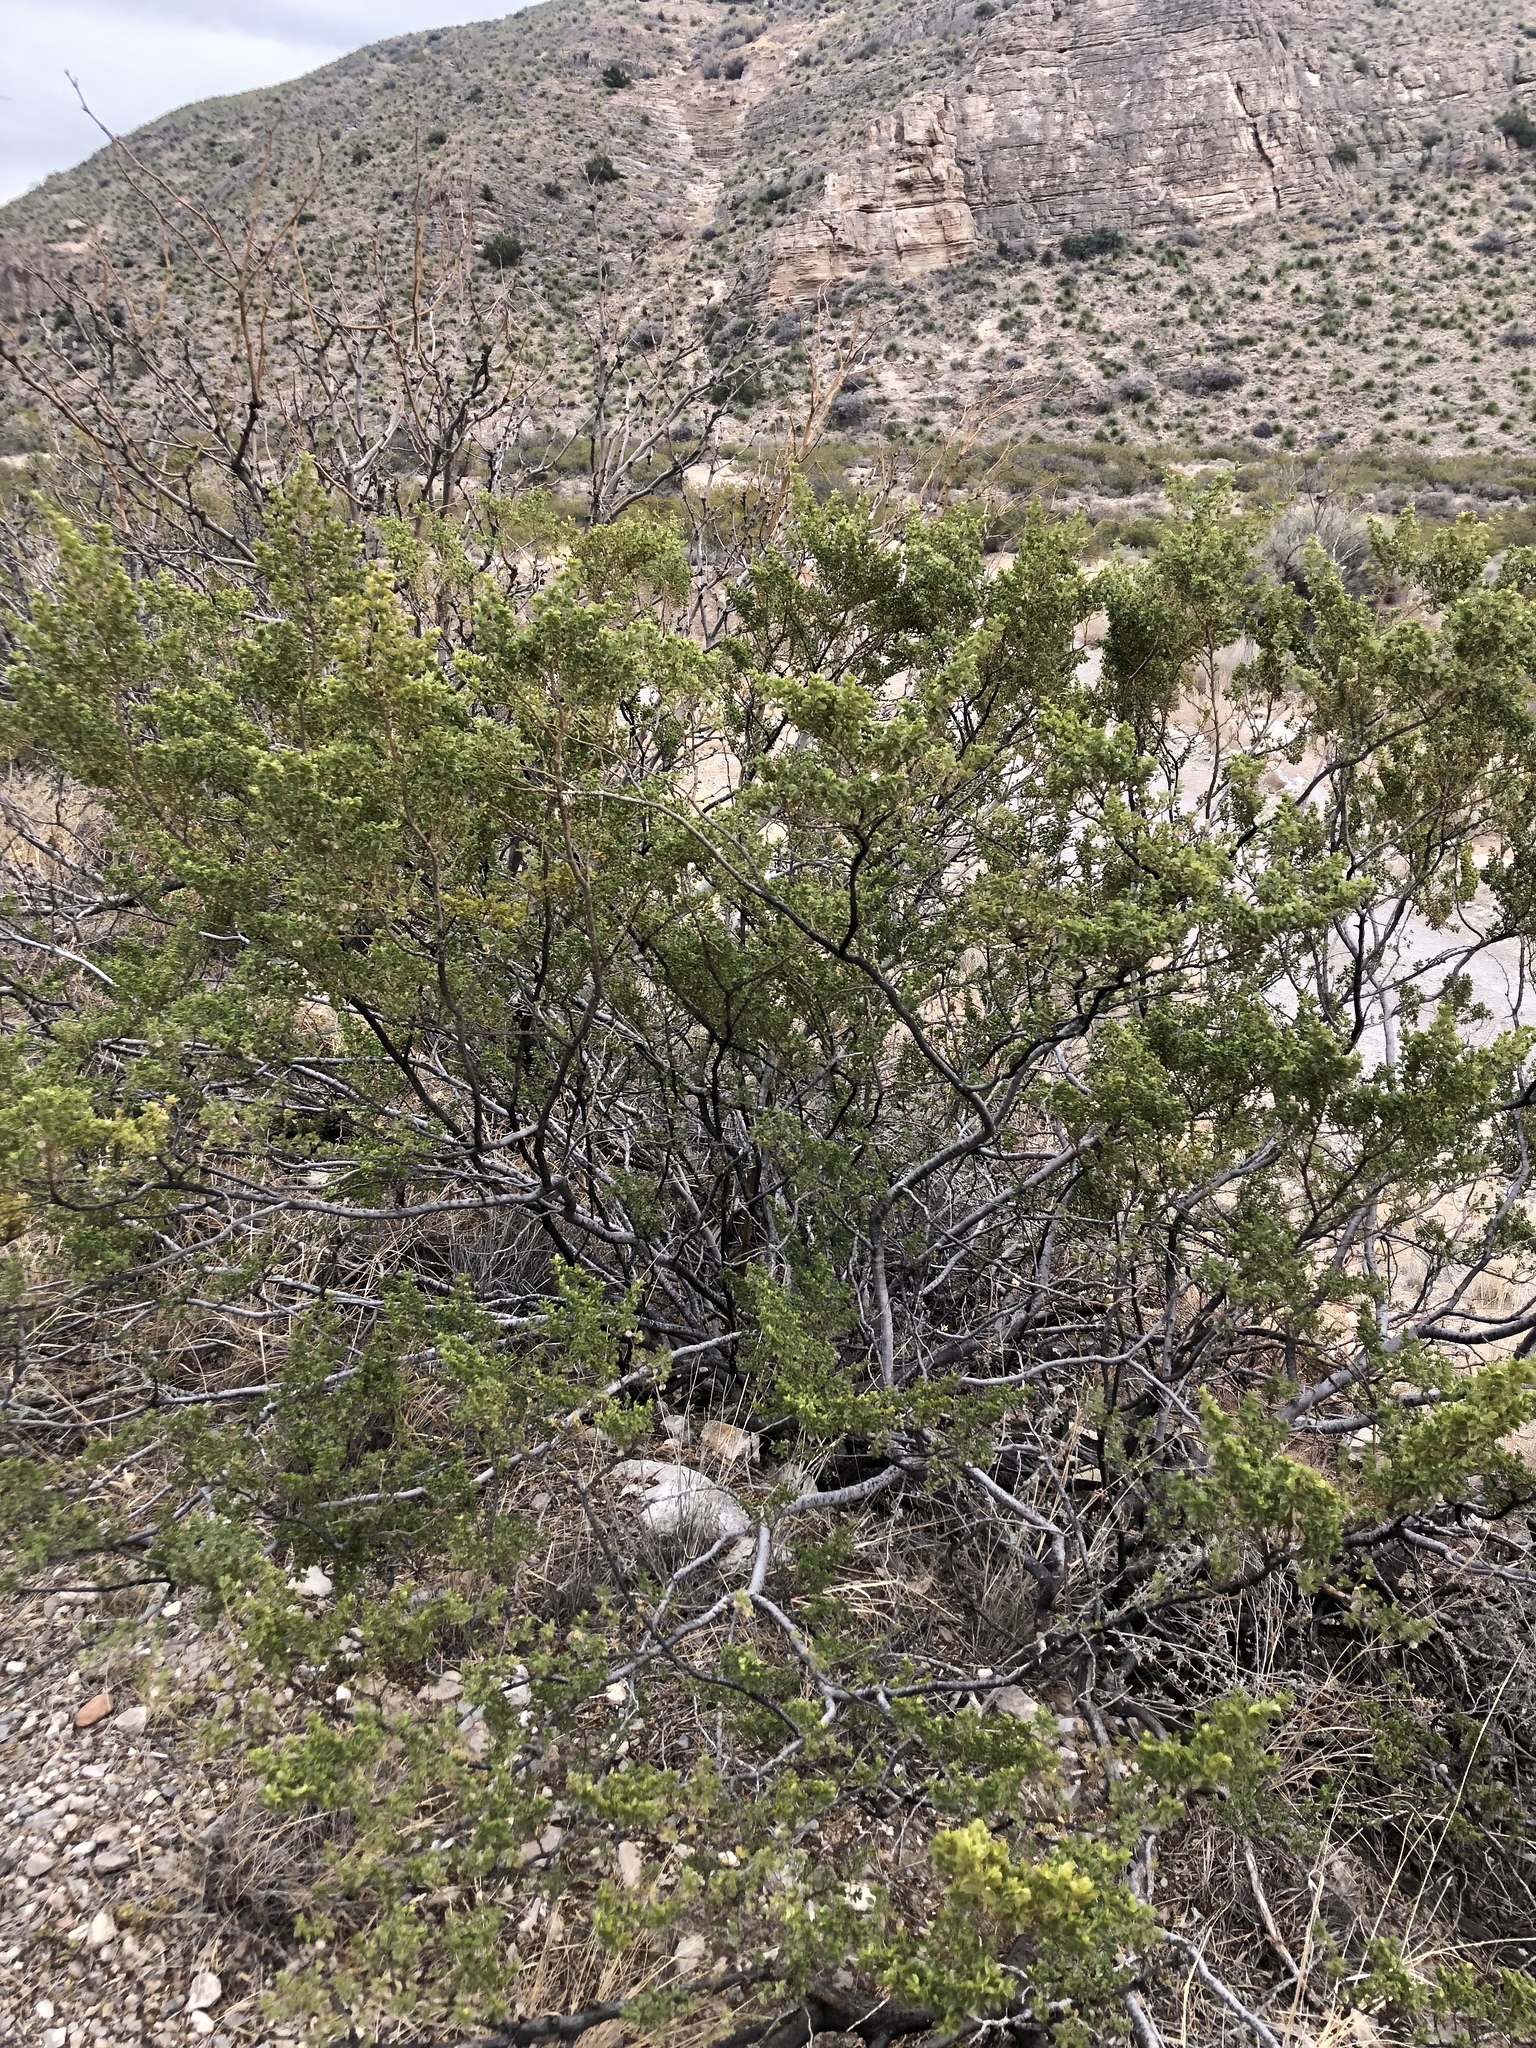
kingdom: Plantae
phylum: Tracheophyta
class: Magnoliopsida
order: Zygophyllales
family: Zygophyllaceae
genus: Larrea
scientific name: Larrea tridentata
